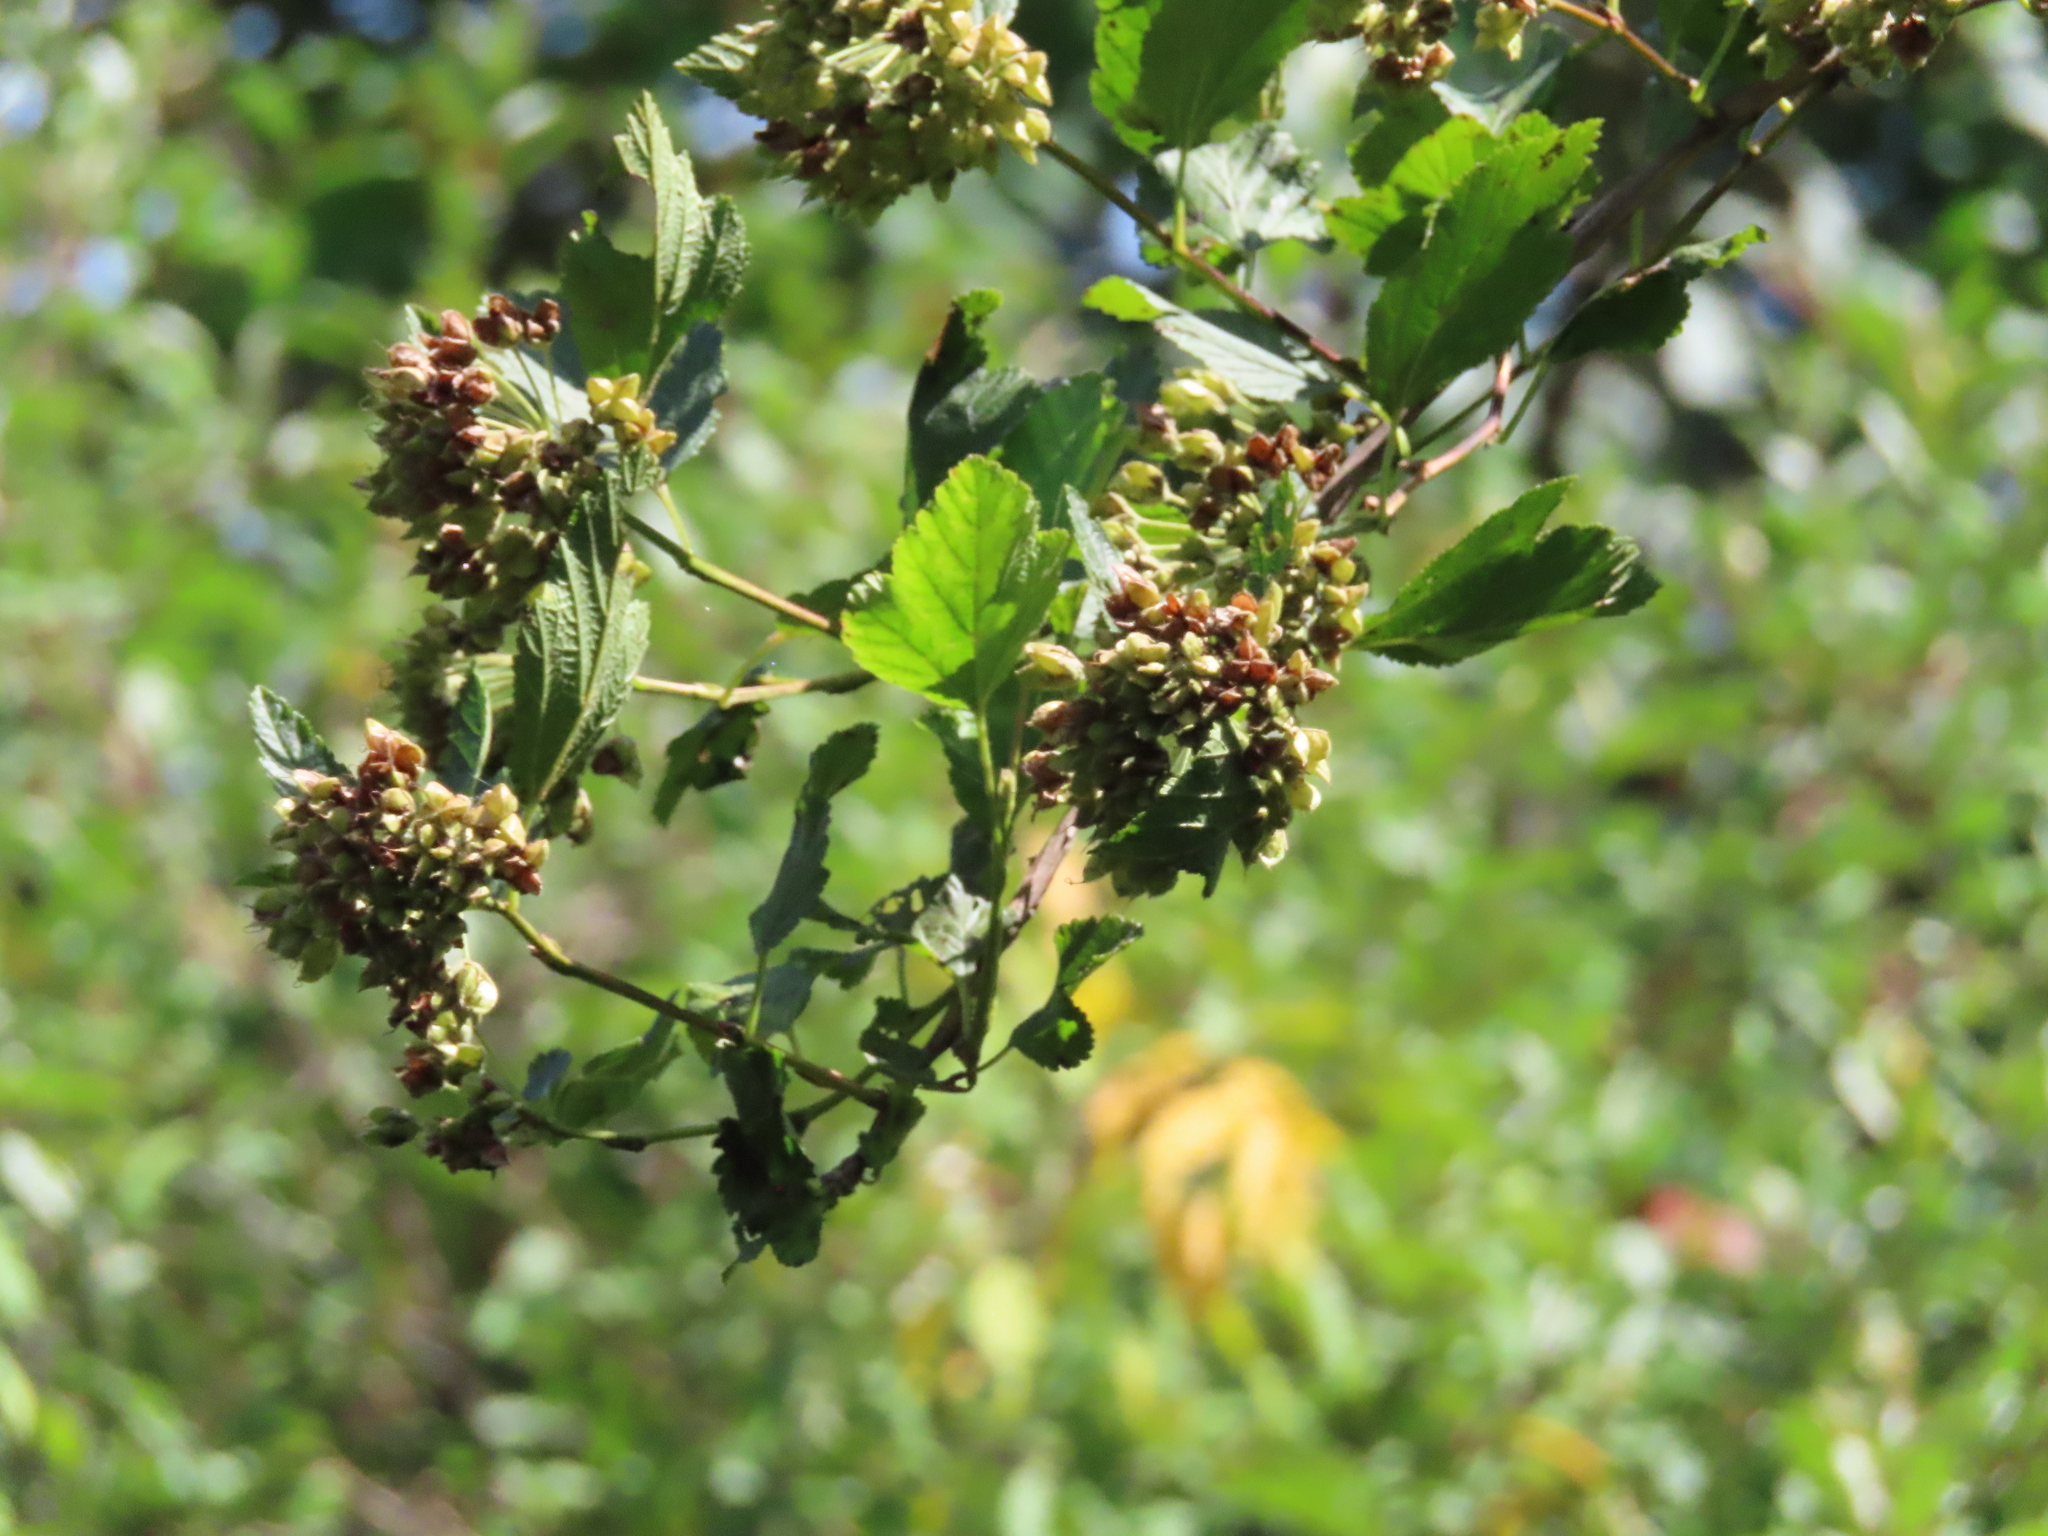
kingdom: Plantae
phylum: Tracheophyta
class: Magnoliopsida
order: Rosales
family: Rosaceae
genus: Physocarpus
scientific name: Physocarpus opulifolius
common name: Ninebark
